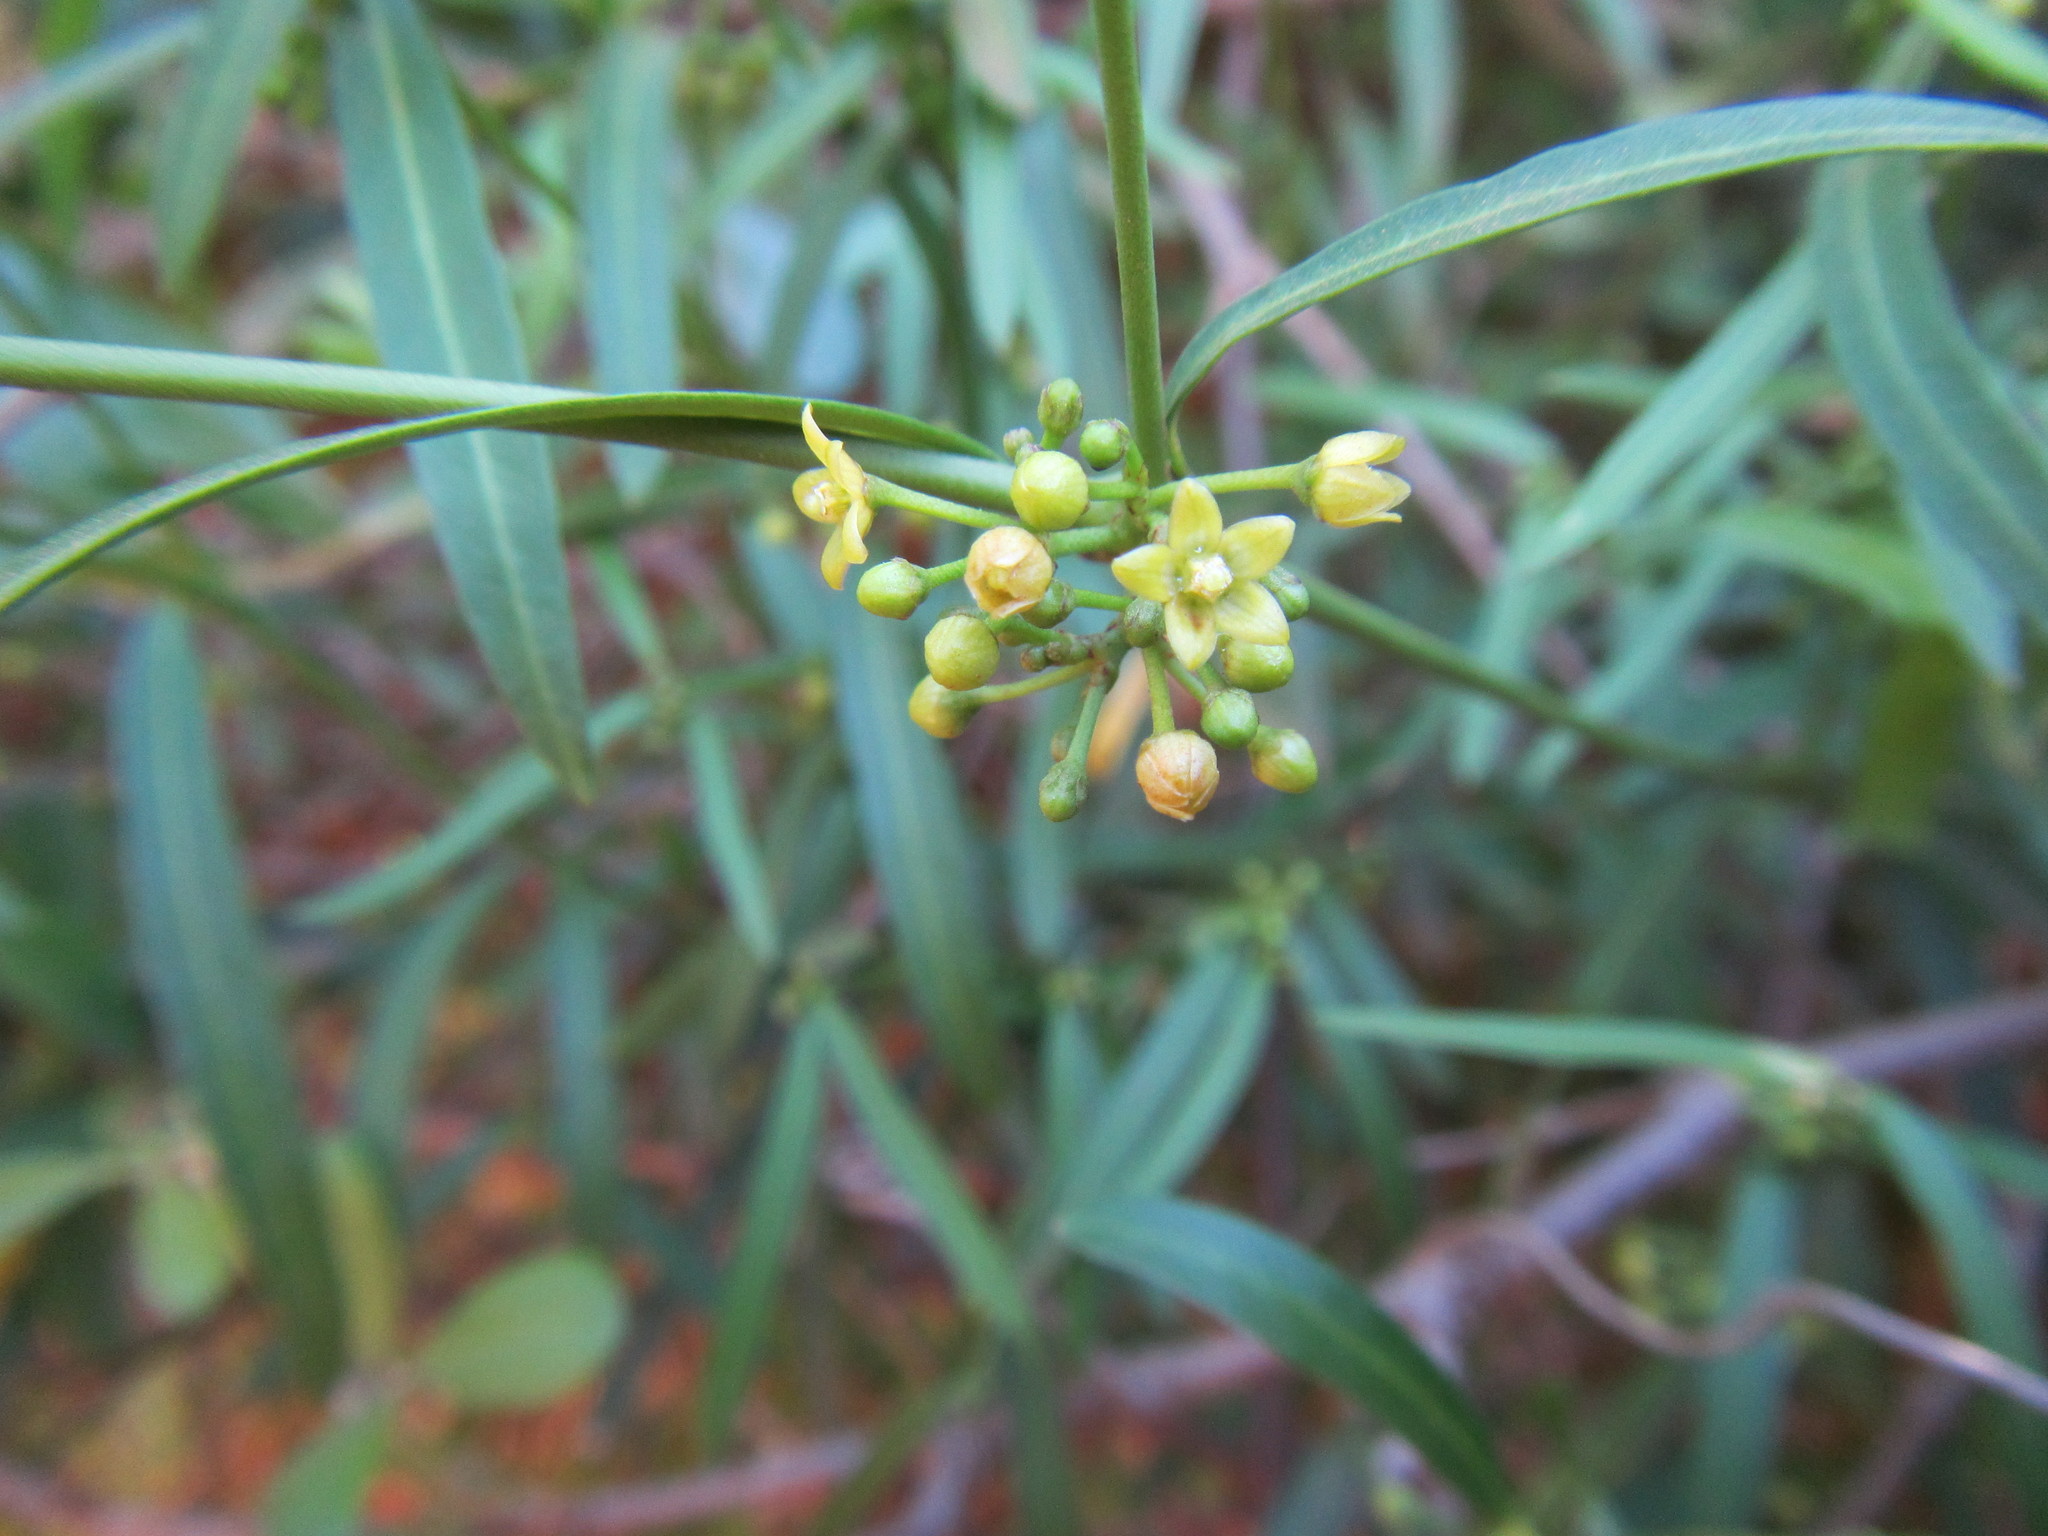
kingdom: Plantae
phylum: Tracheophyta
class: Magnoliopsida
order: Gentianales
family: Apocynaceae
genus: Secamone
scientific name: Secamone filiformis
